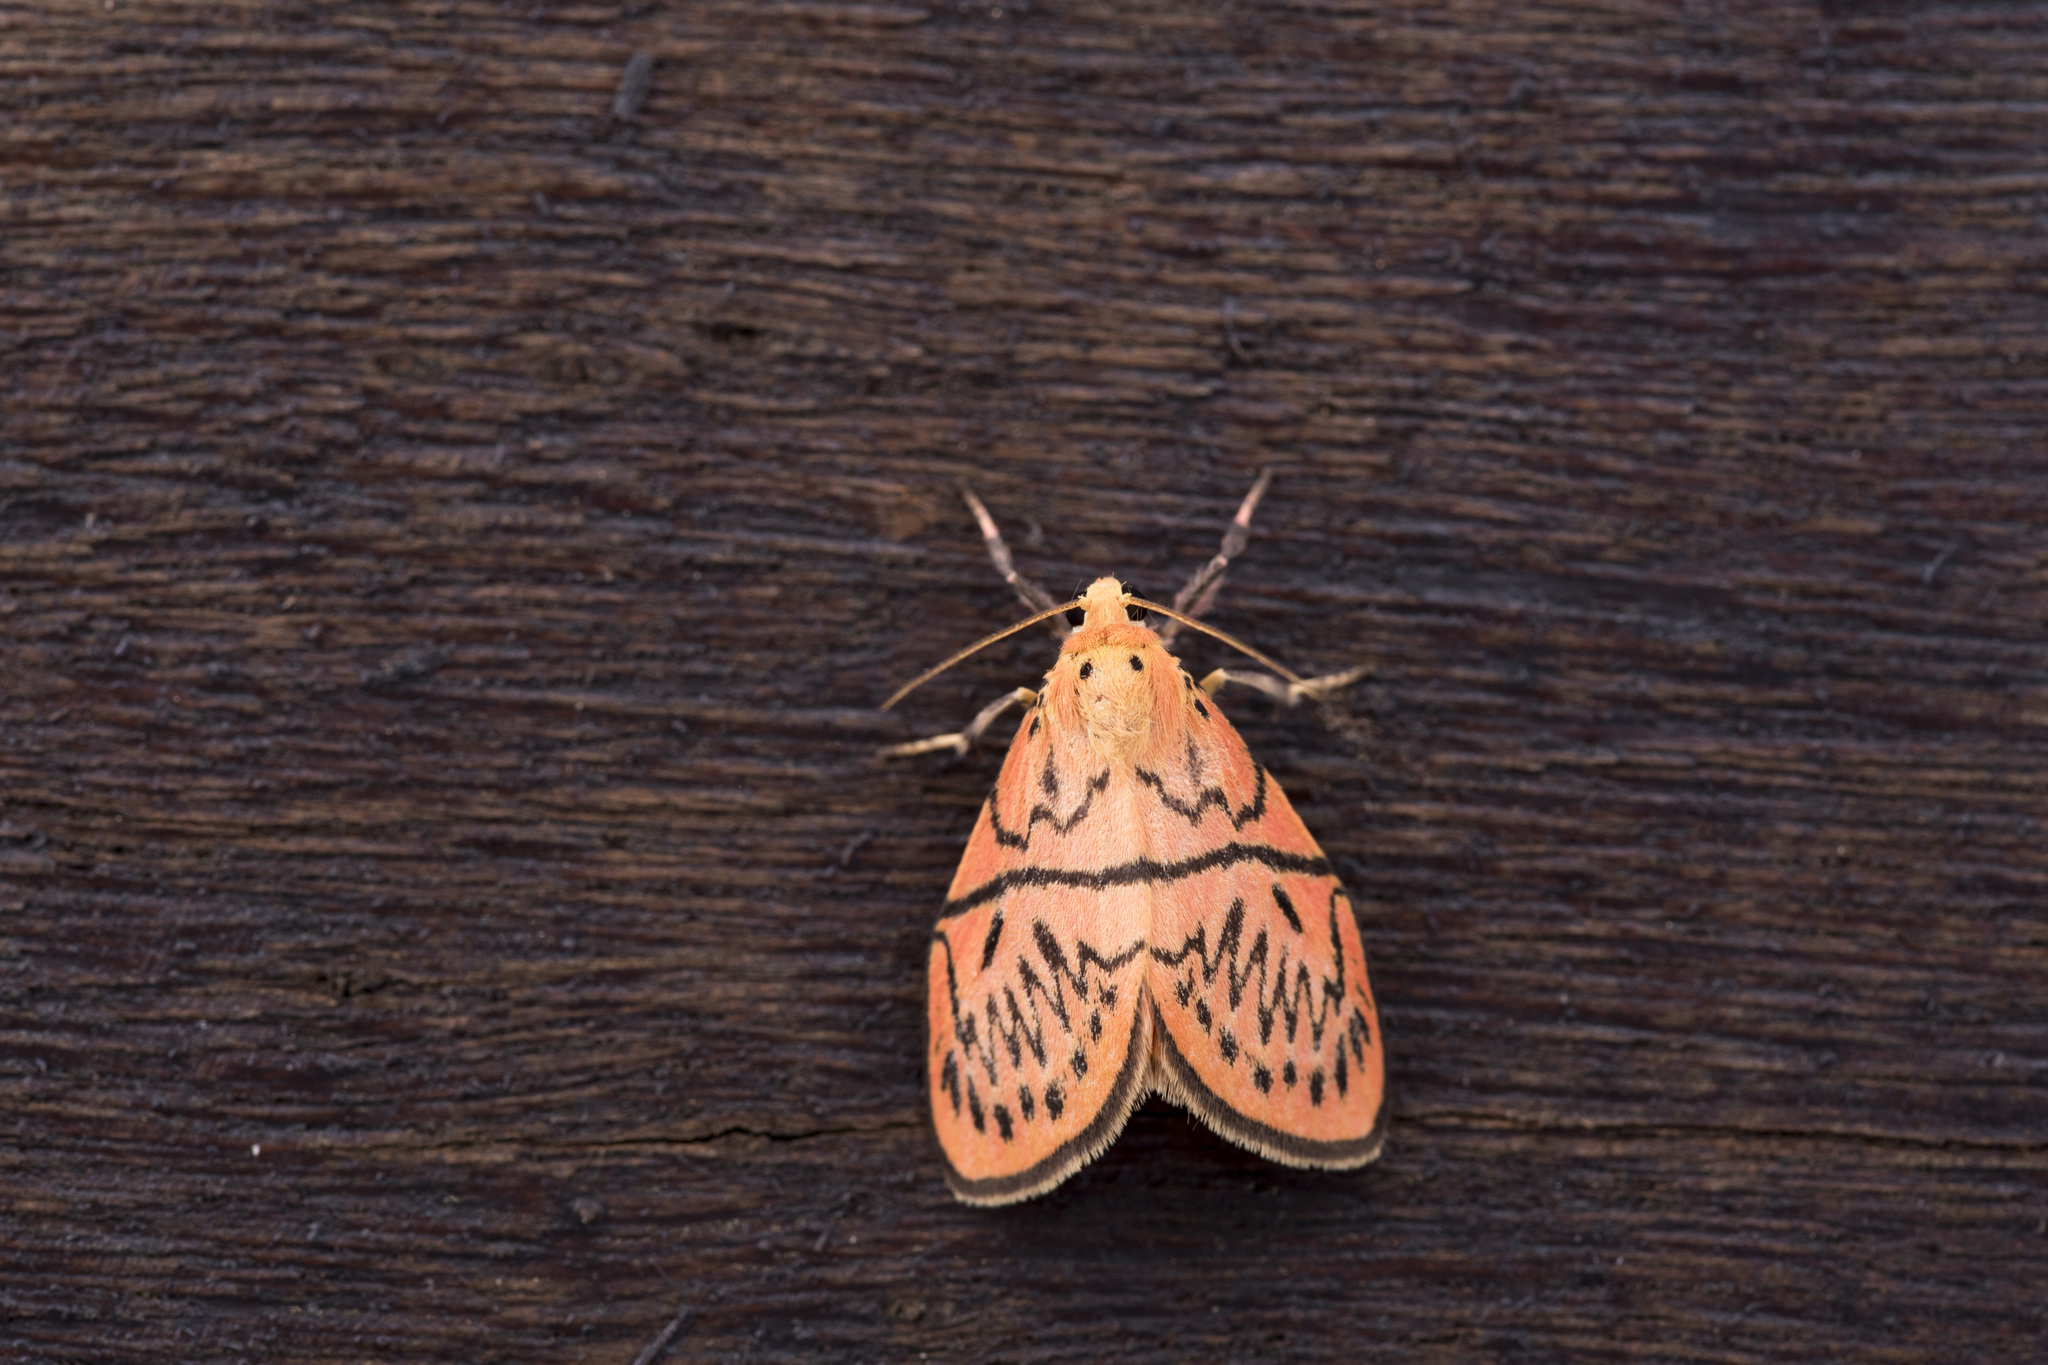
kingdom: Animalia
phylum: Arthropoda
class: Insecta
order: Lepidoptera
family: Erebidae
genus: Sesapa
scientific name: Sesapa honbaensis
